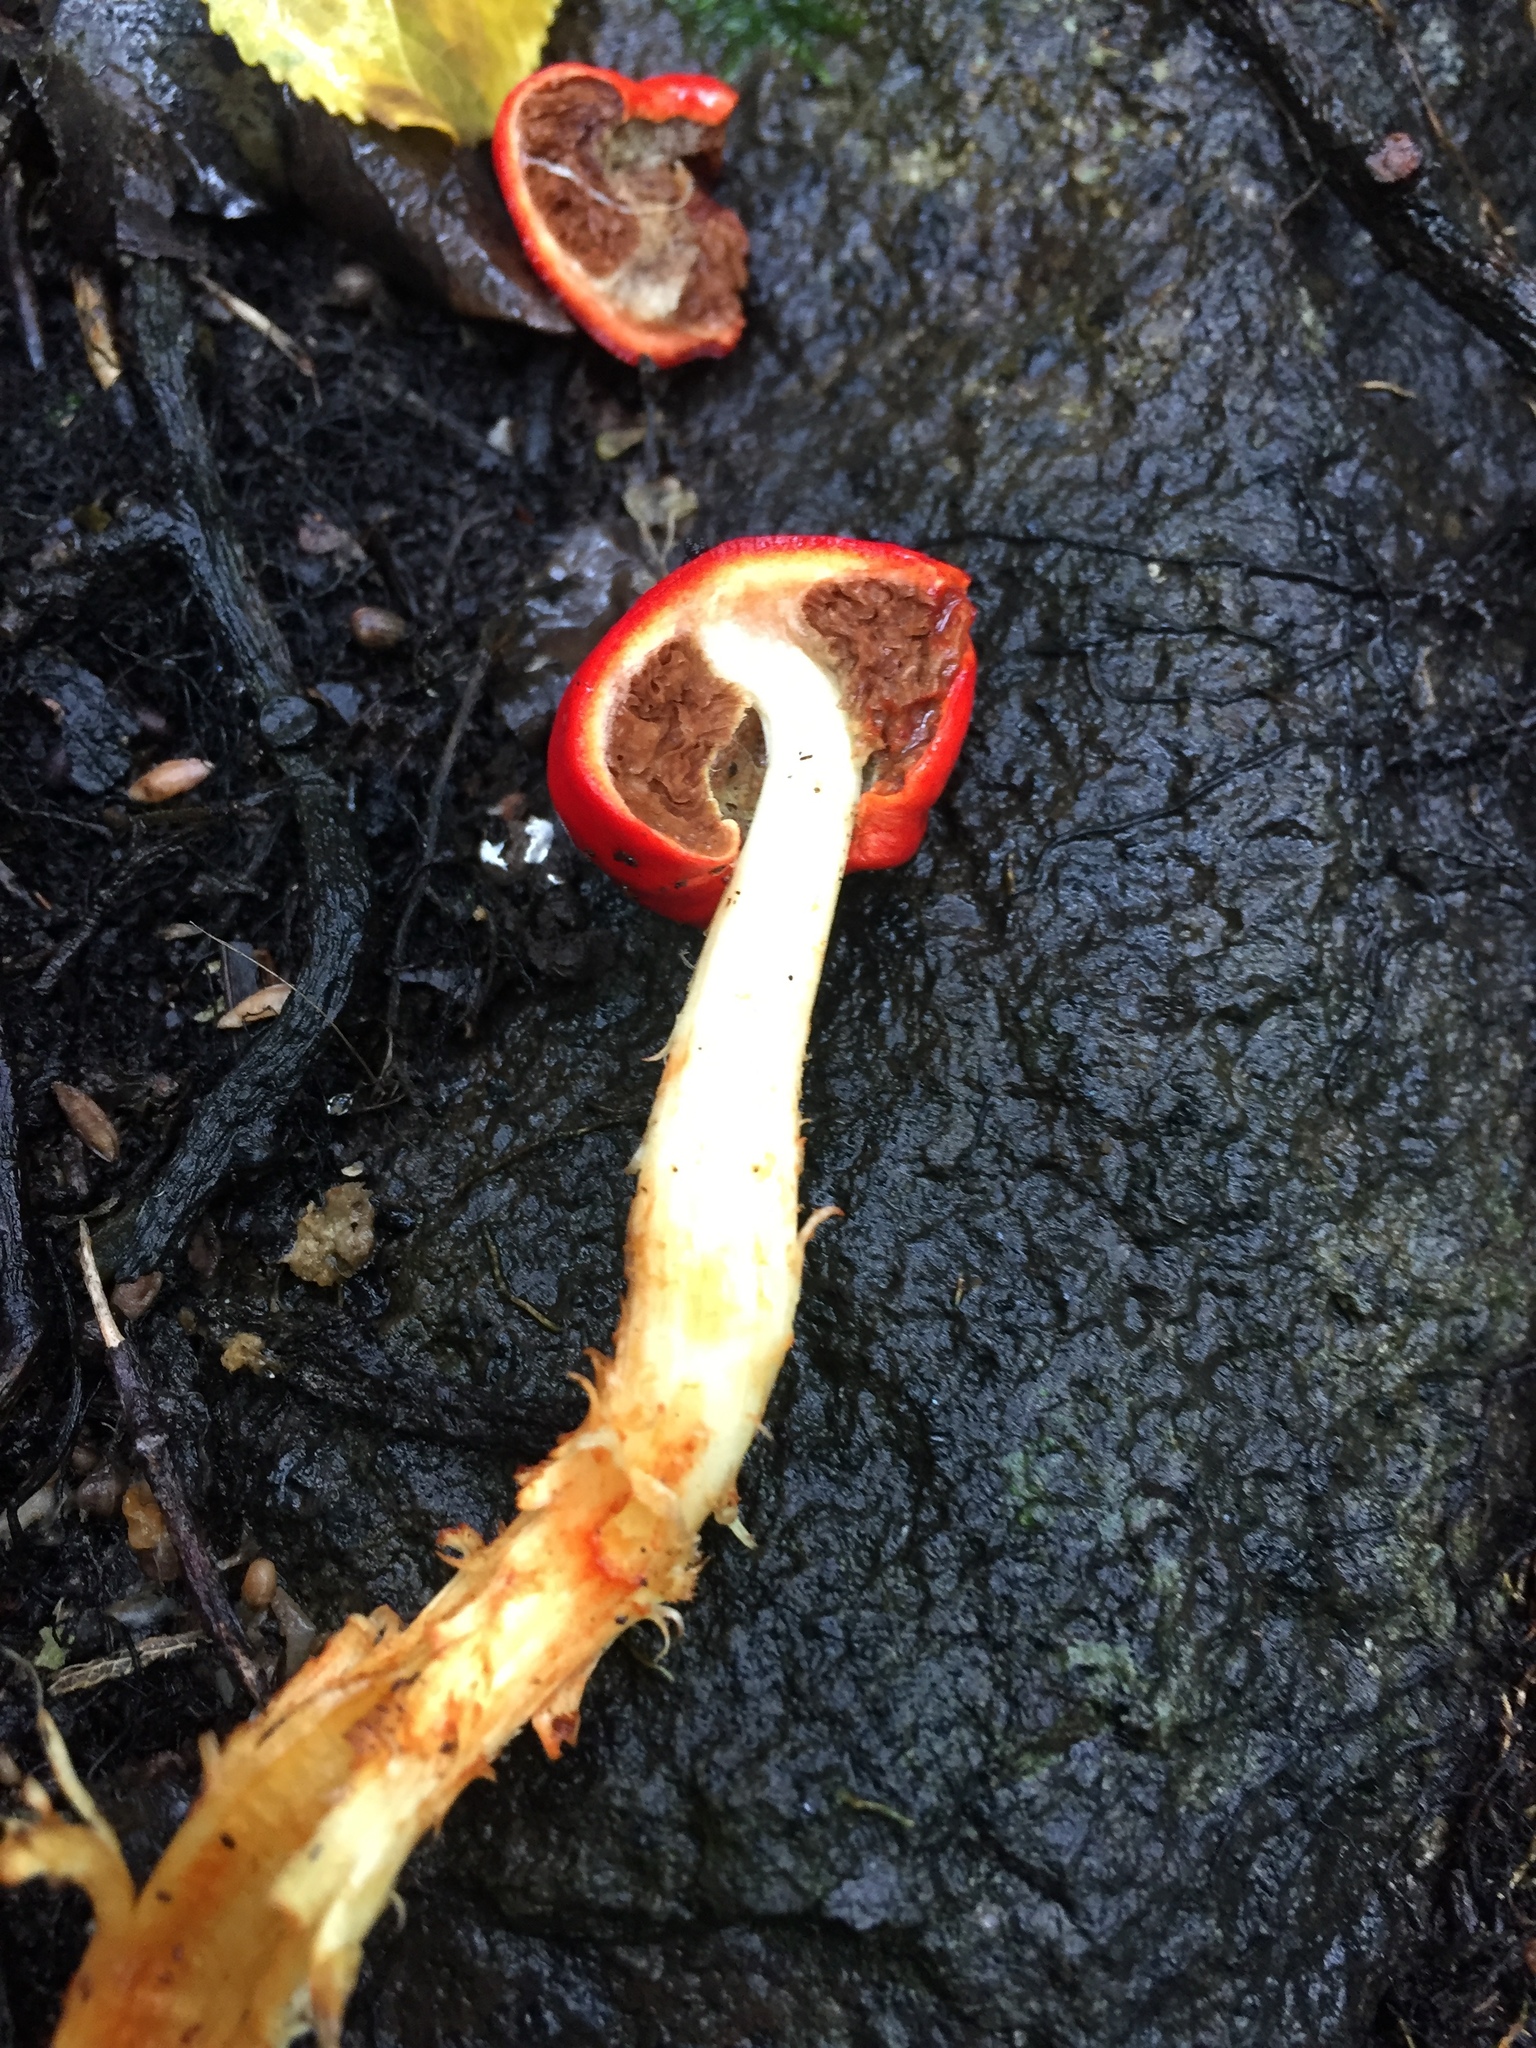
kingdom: Fungi
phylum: Basidiomycota
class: Agaricomycetes
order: Agaricales
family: Strophariaceae
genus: Leratiomyces
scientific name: Leratiomyces erythrocephalus
